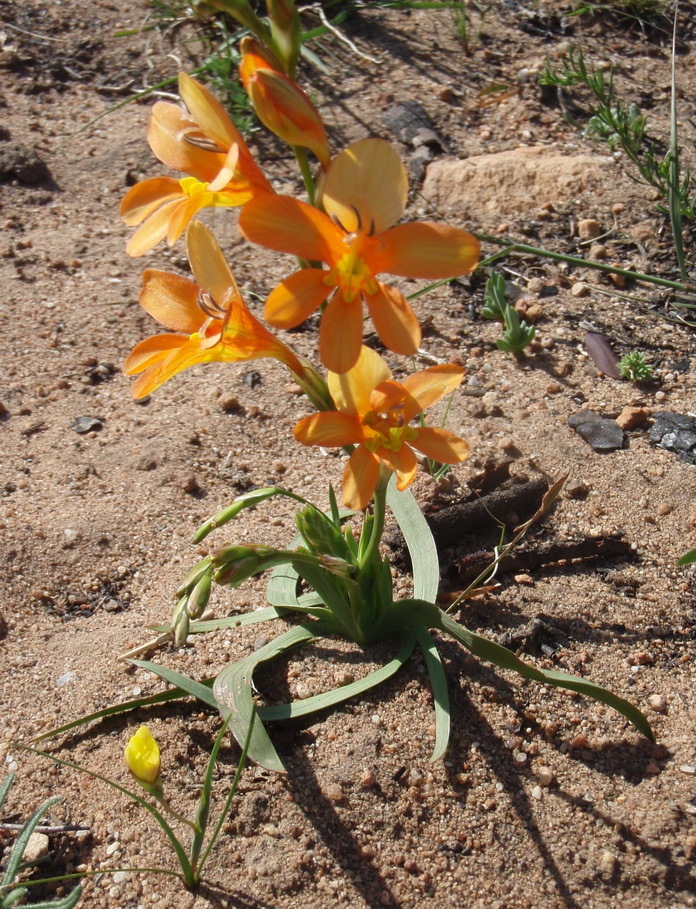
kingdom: Plantae
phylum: Tracheophyta
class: Liliopsida
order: Asparagales
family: Iridaceae
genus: Tritonia
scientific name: Tritonia securigera
